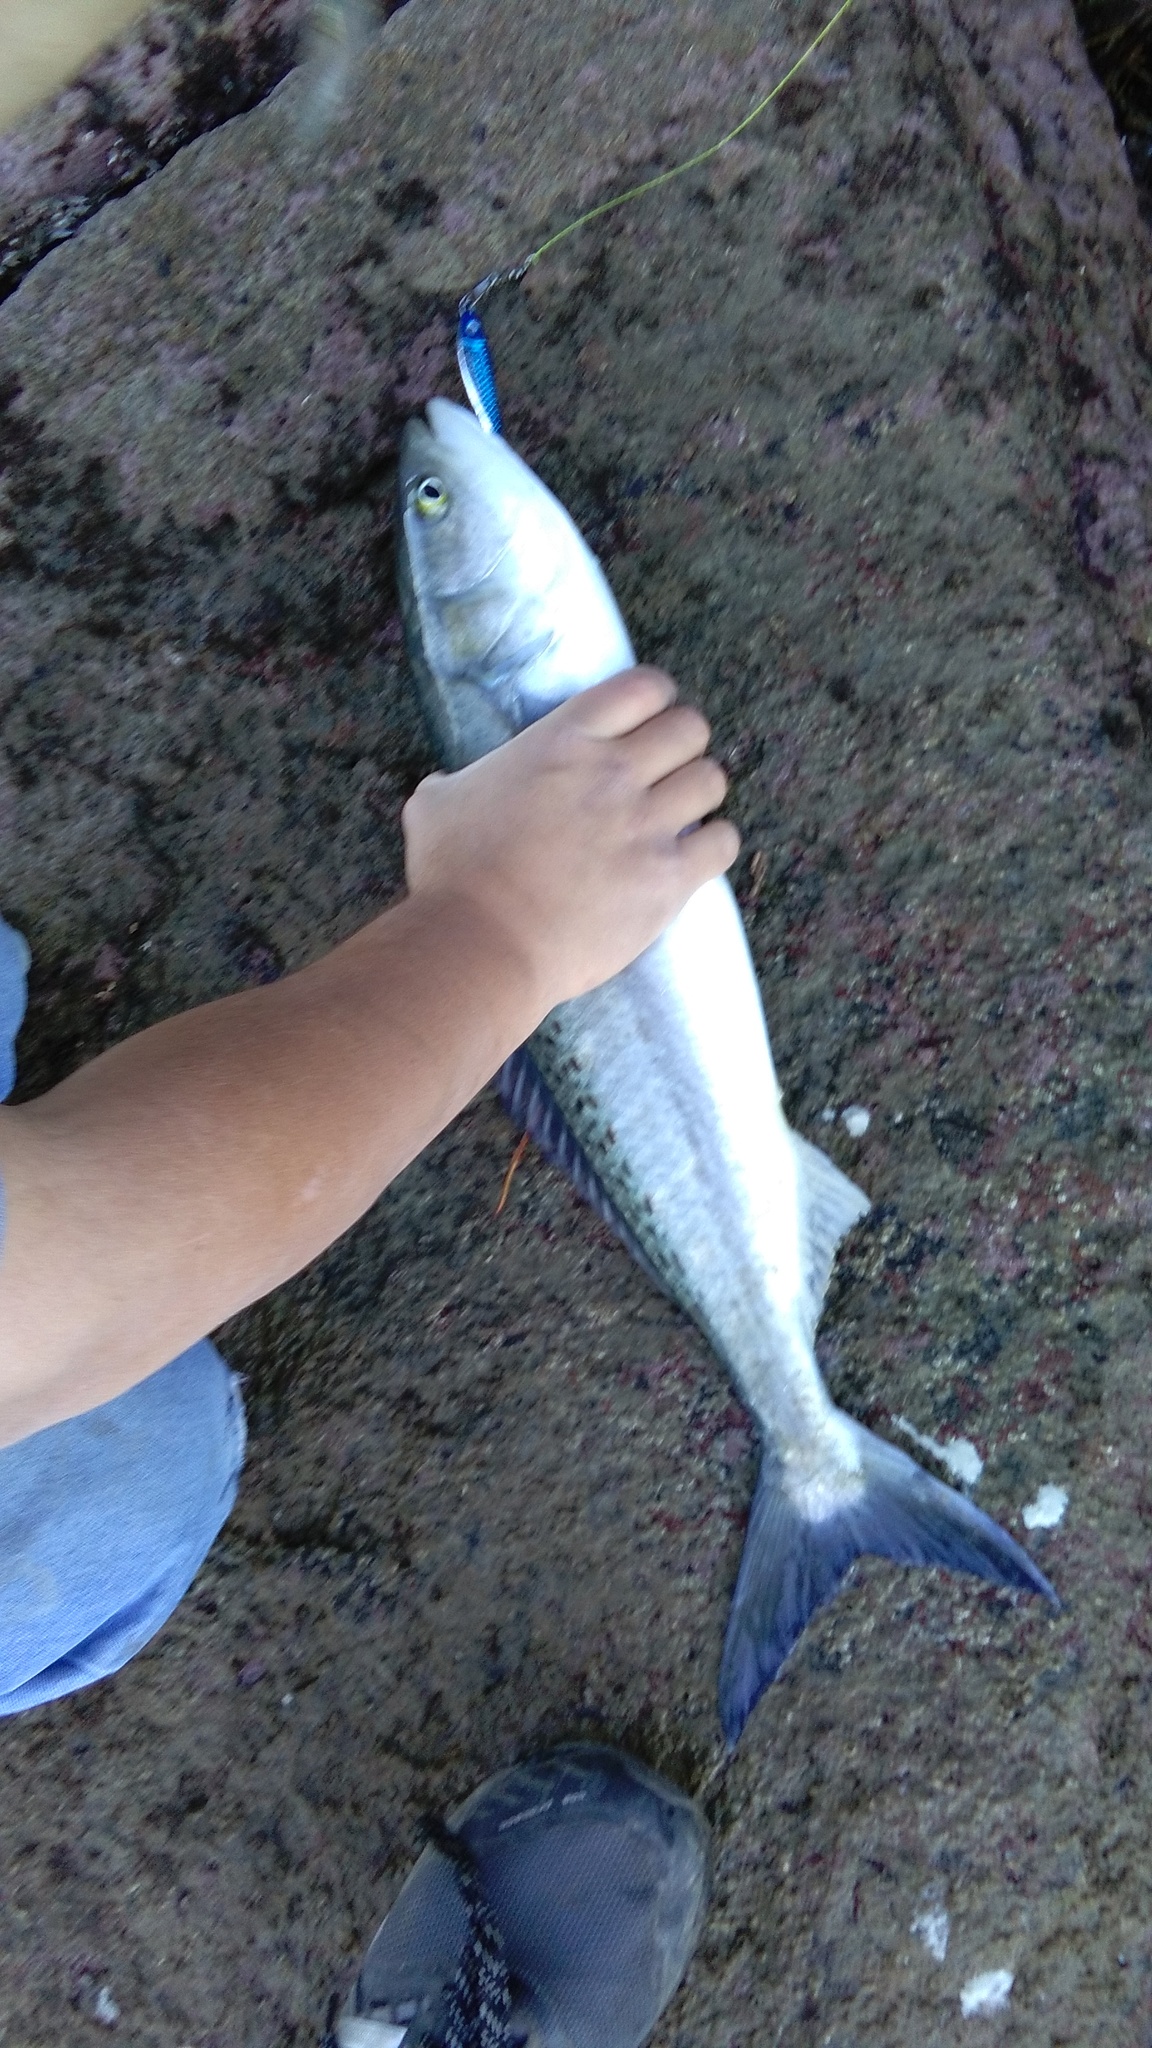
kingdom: Animalia
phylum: Chordata
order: Perciformes
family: Arripidae
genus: Arripis
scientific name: Arripis trutta
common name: Kahawai
